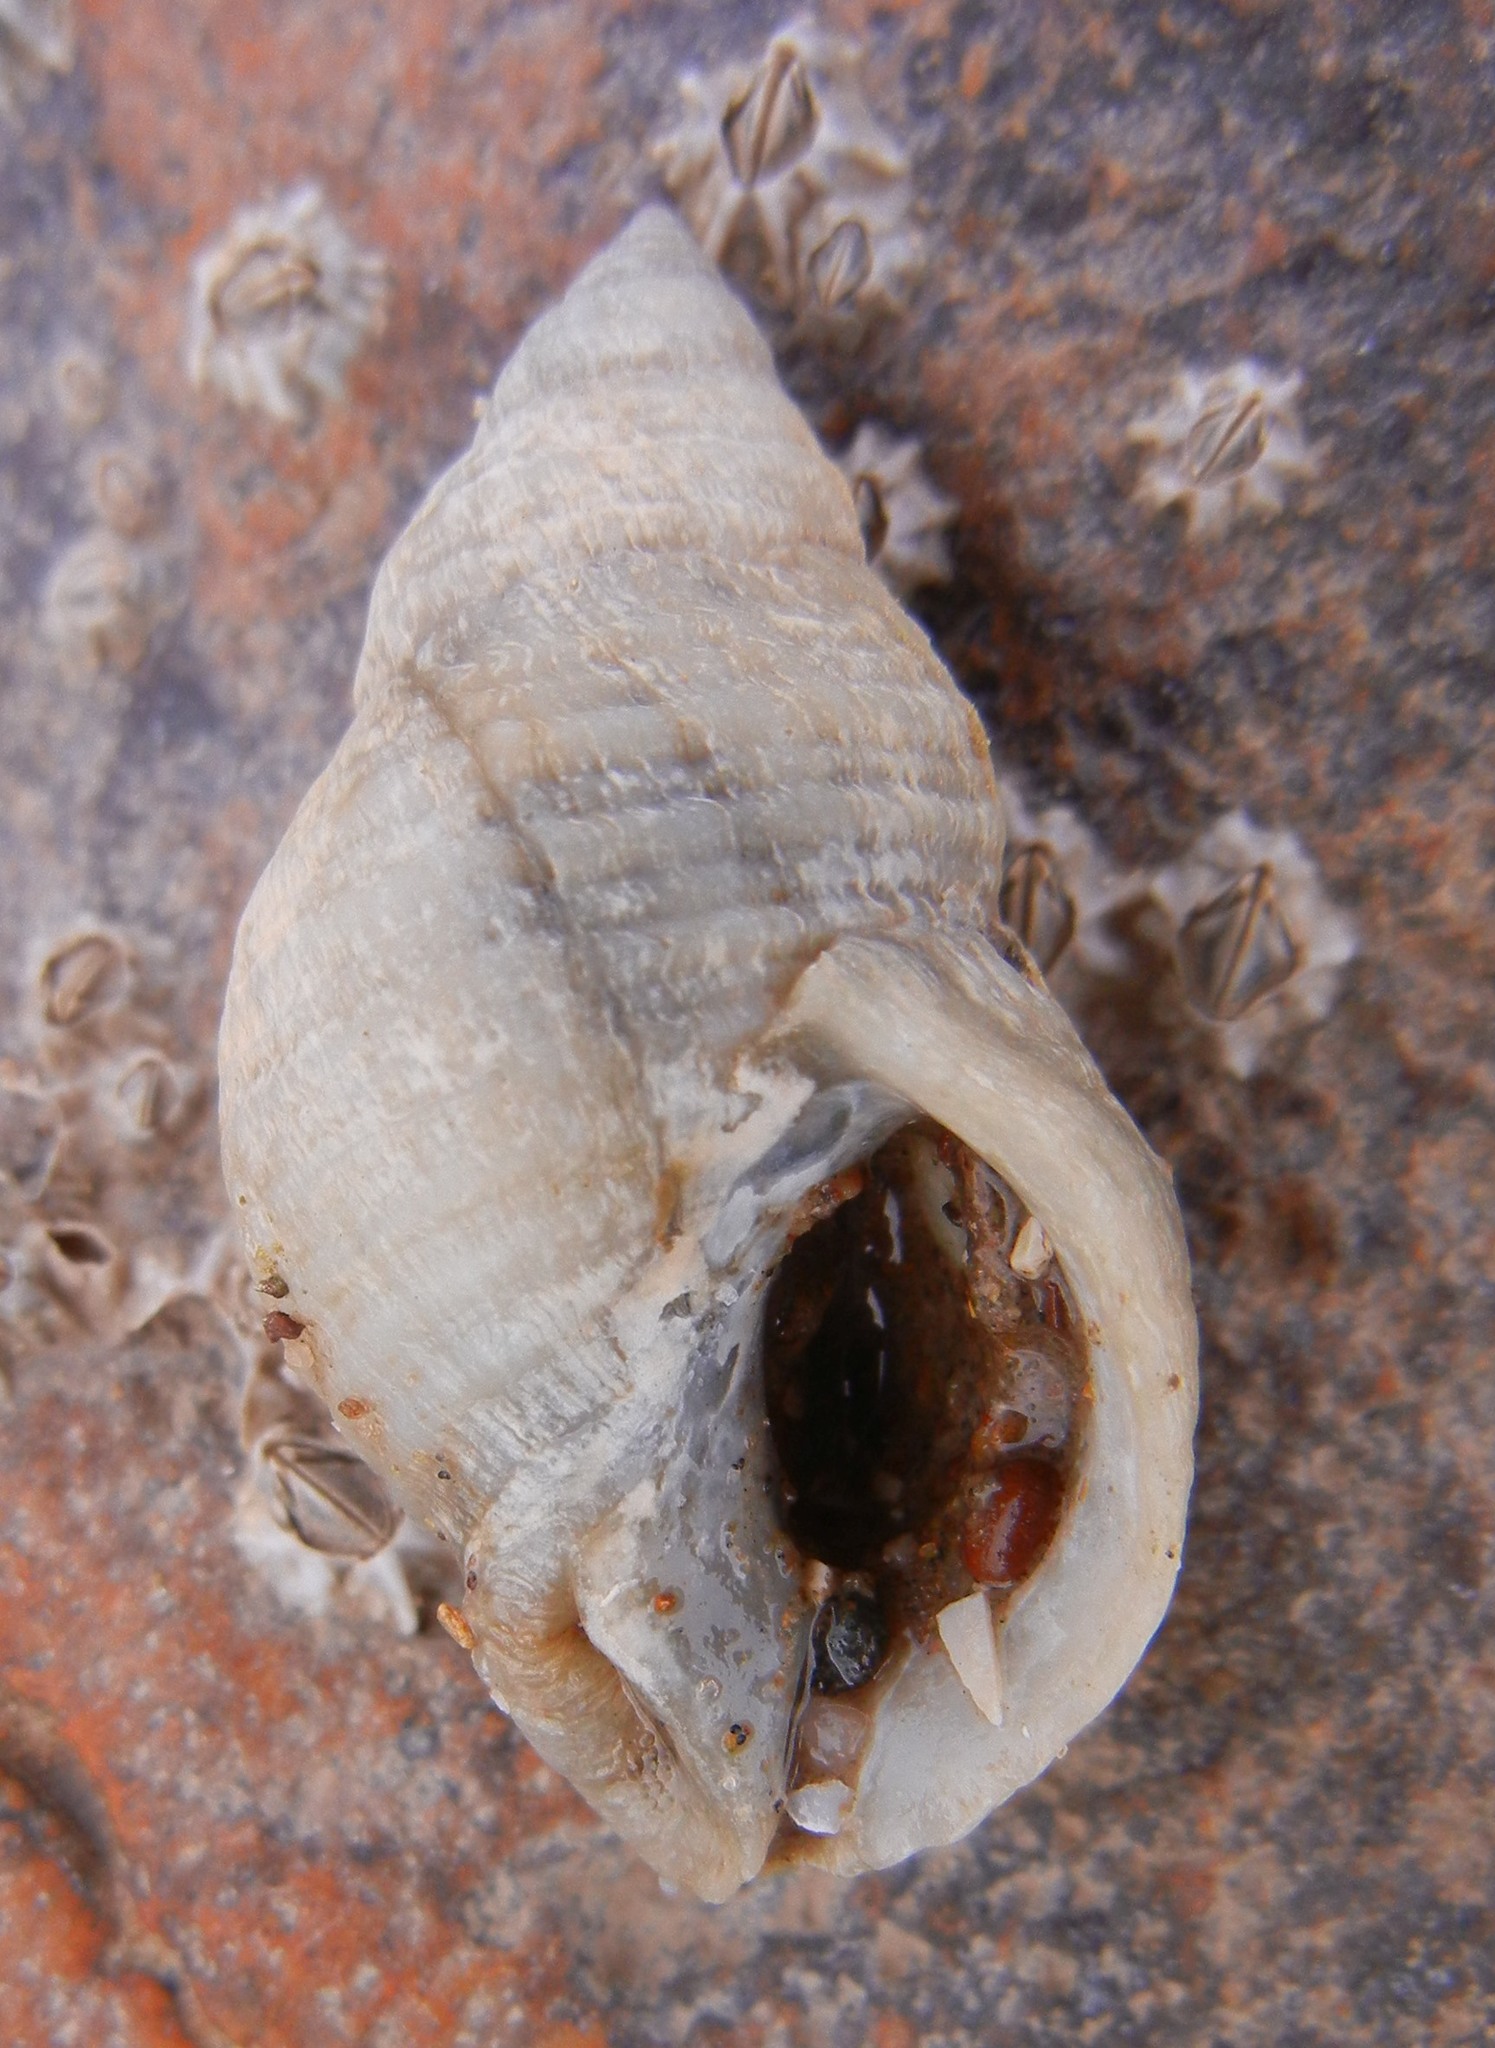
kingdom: Animalia
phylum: Mollusca
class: Gastropoda
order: Neogastropoda
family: Muricidae
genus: Nucella
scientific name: Nucella lapillus
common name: Dog whelk
